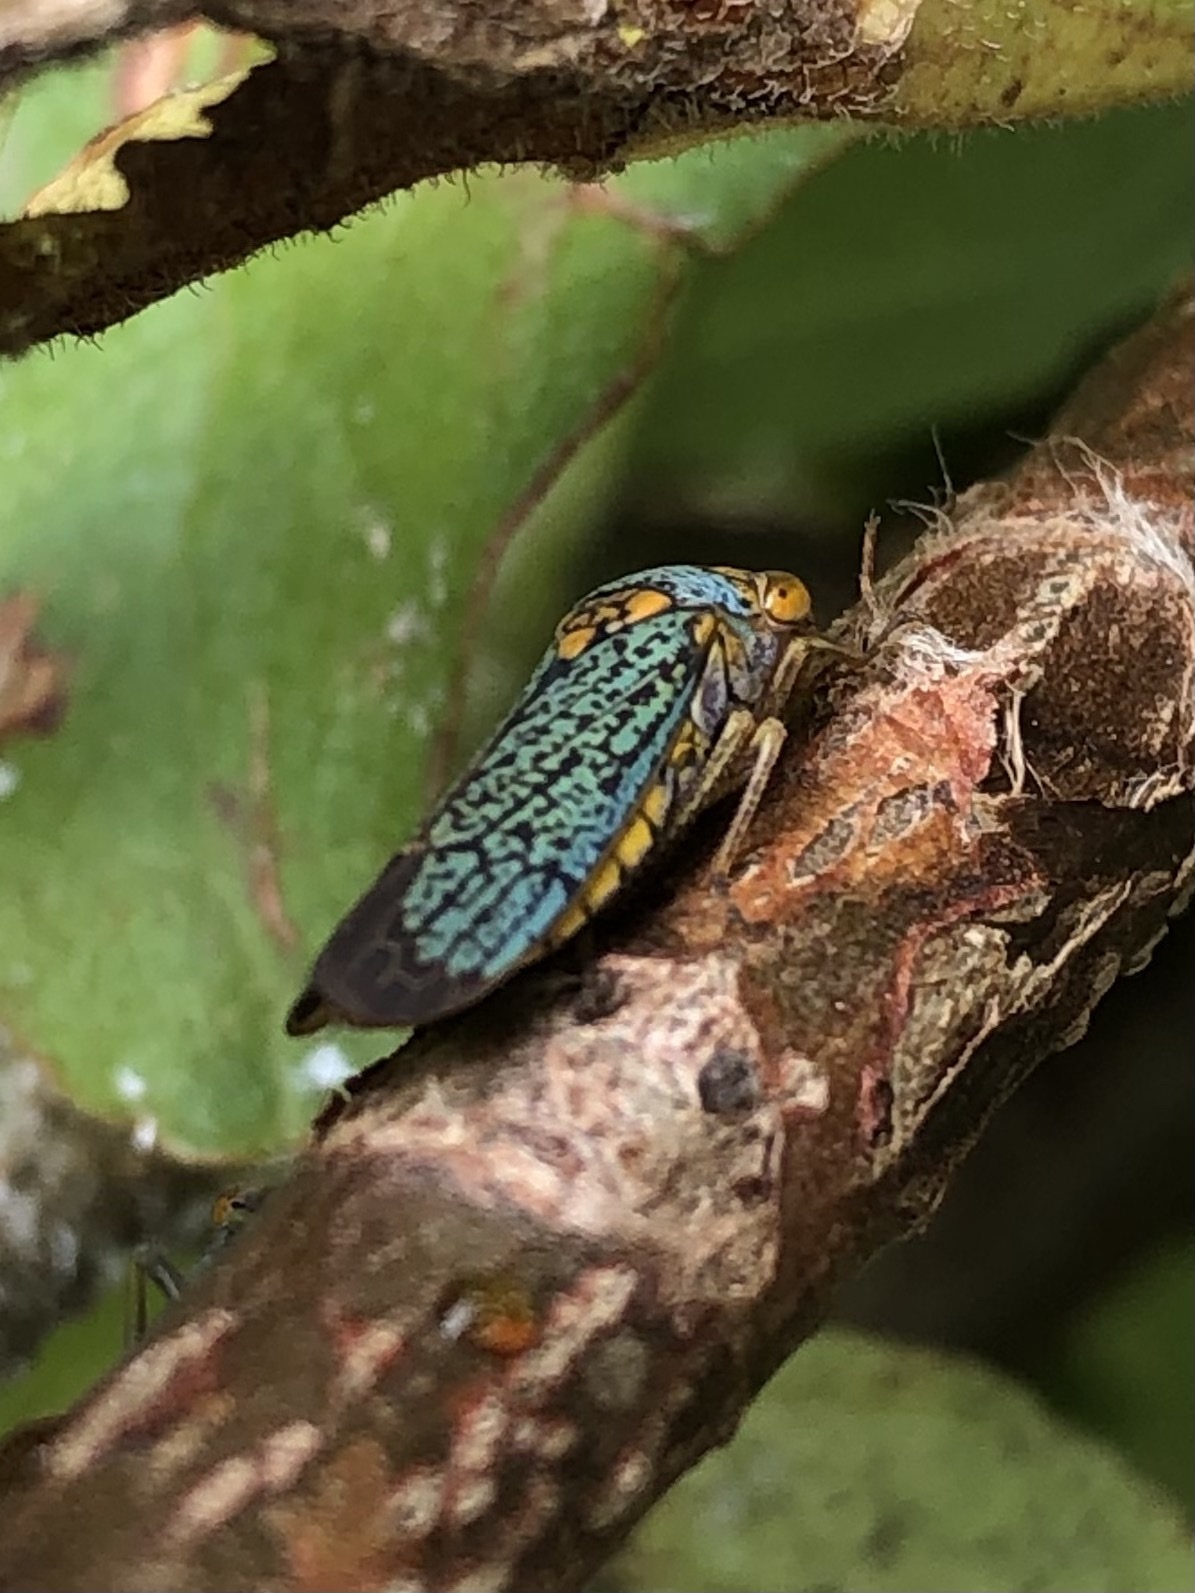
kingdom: Animalia
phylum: Arthropoda
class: Insecta
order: Hemiptera
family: Cicadellidae
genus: Oncometopia
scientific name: Oncometopia orbona
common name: Broad-headed sharpshooter
